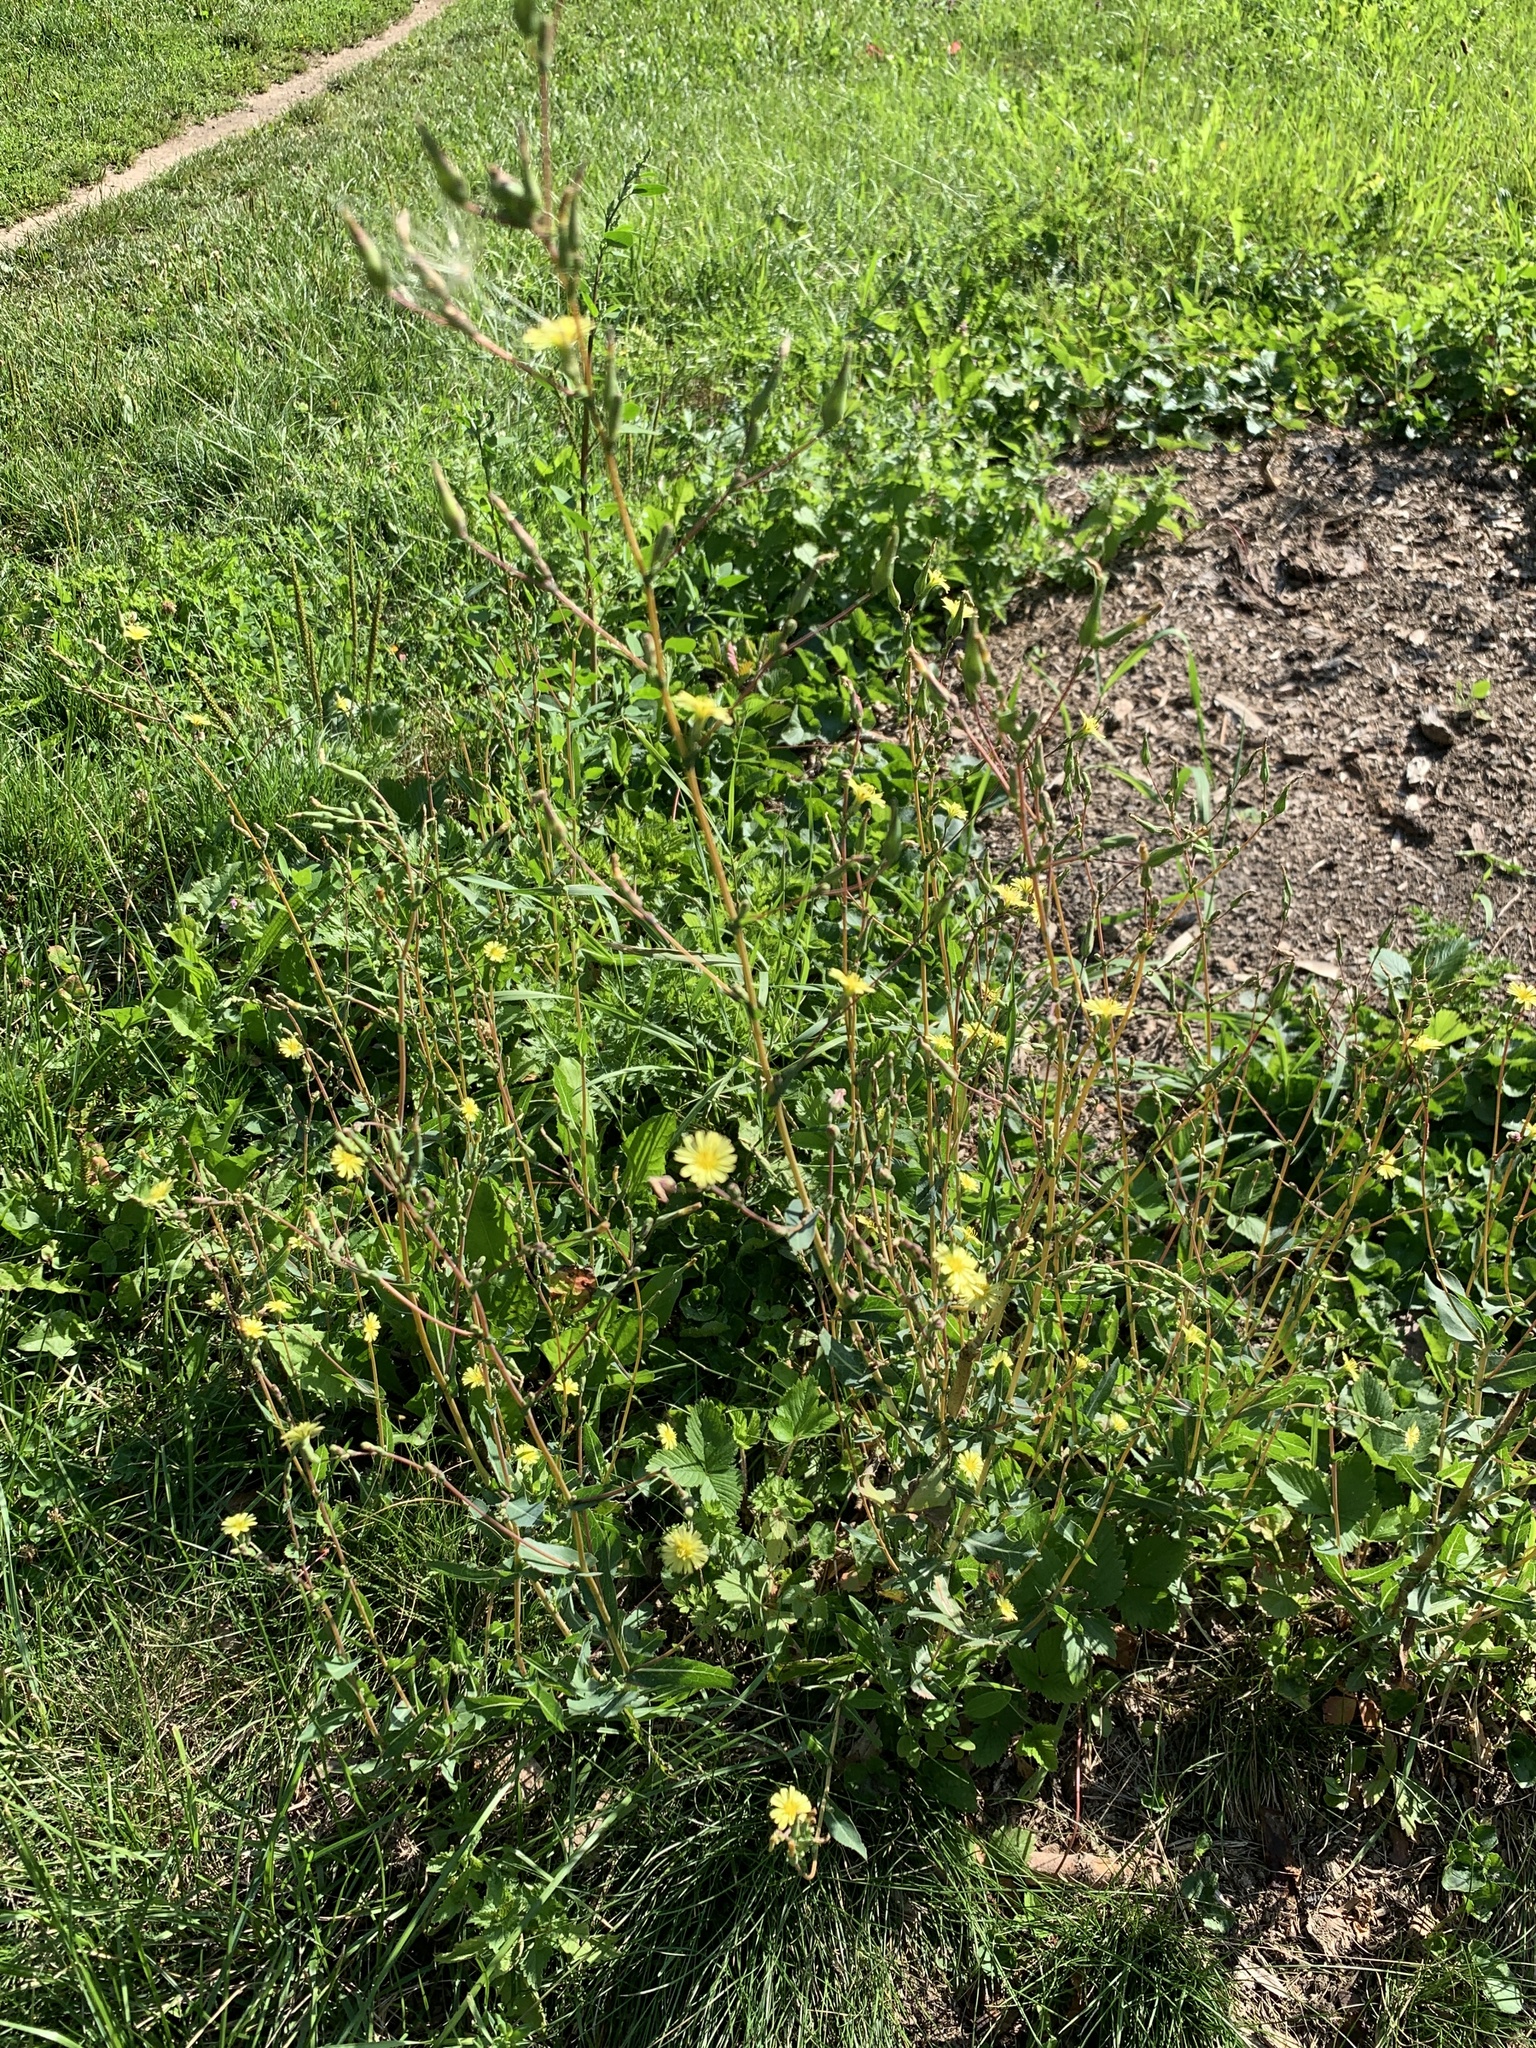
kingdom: Plantae
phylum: Tracheophyta
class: Magnoliopsida
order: Asterales
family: Asteraceae
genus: Lactuca
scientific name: Lactuca serriola
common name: Prickly lettuce
